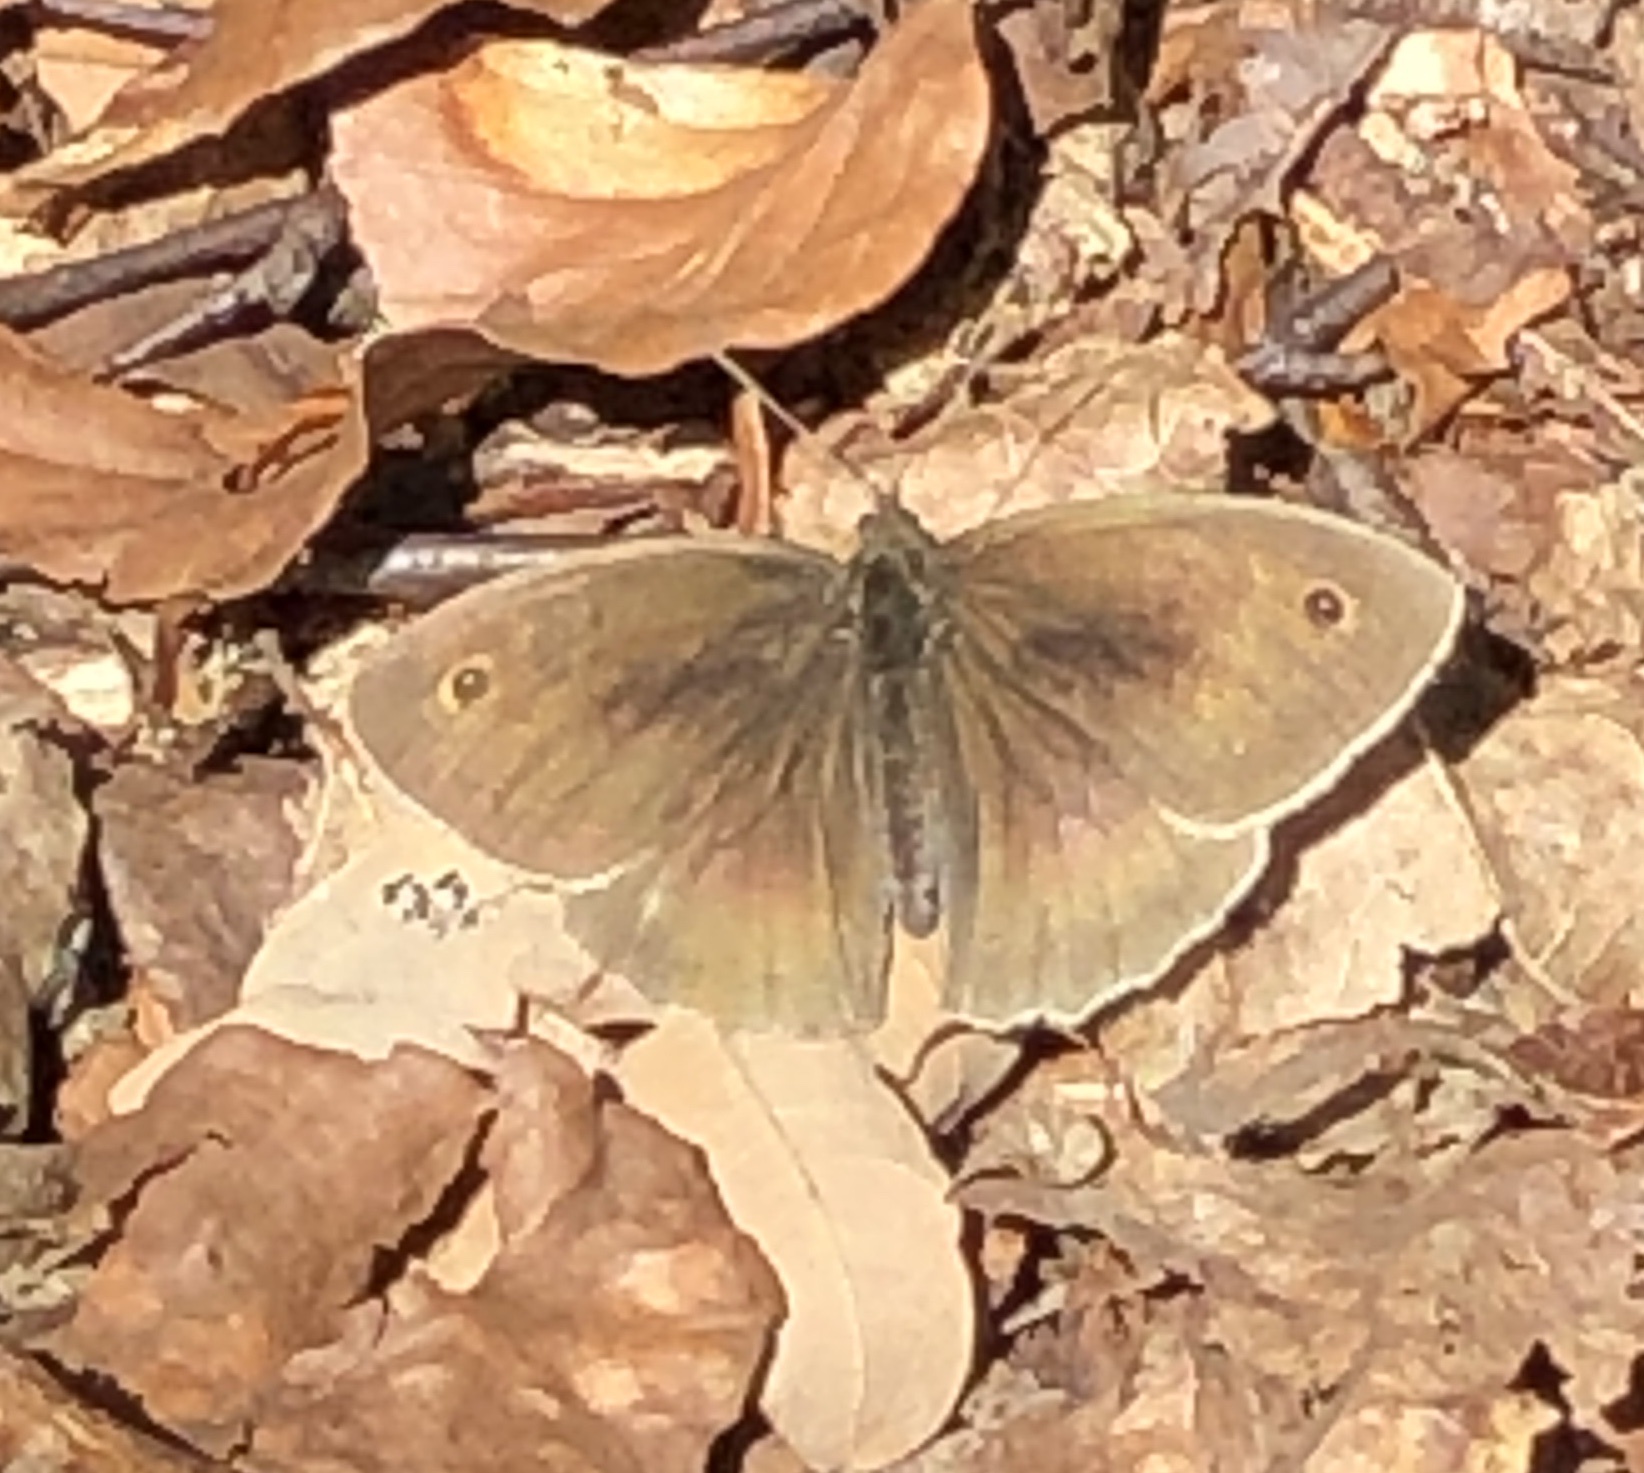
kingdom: Animalia
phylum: Arthropoda
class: Insecta
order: Lepidoptera
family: Nymphalidae
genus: Maniola
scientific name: Maniola jurtina
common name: Meadow brown
